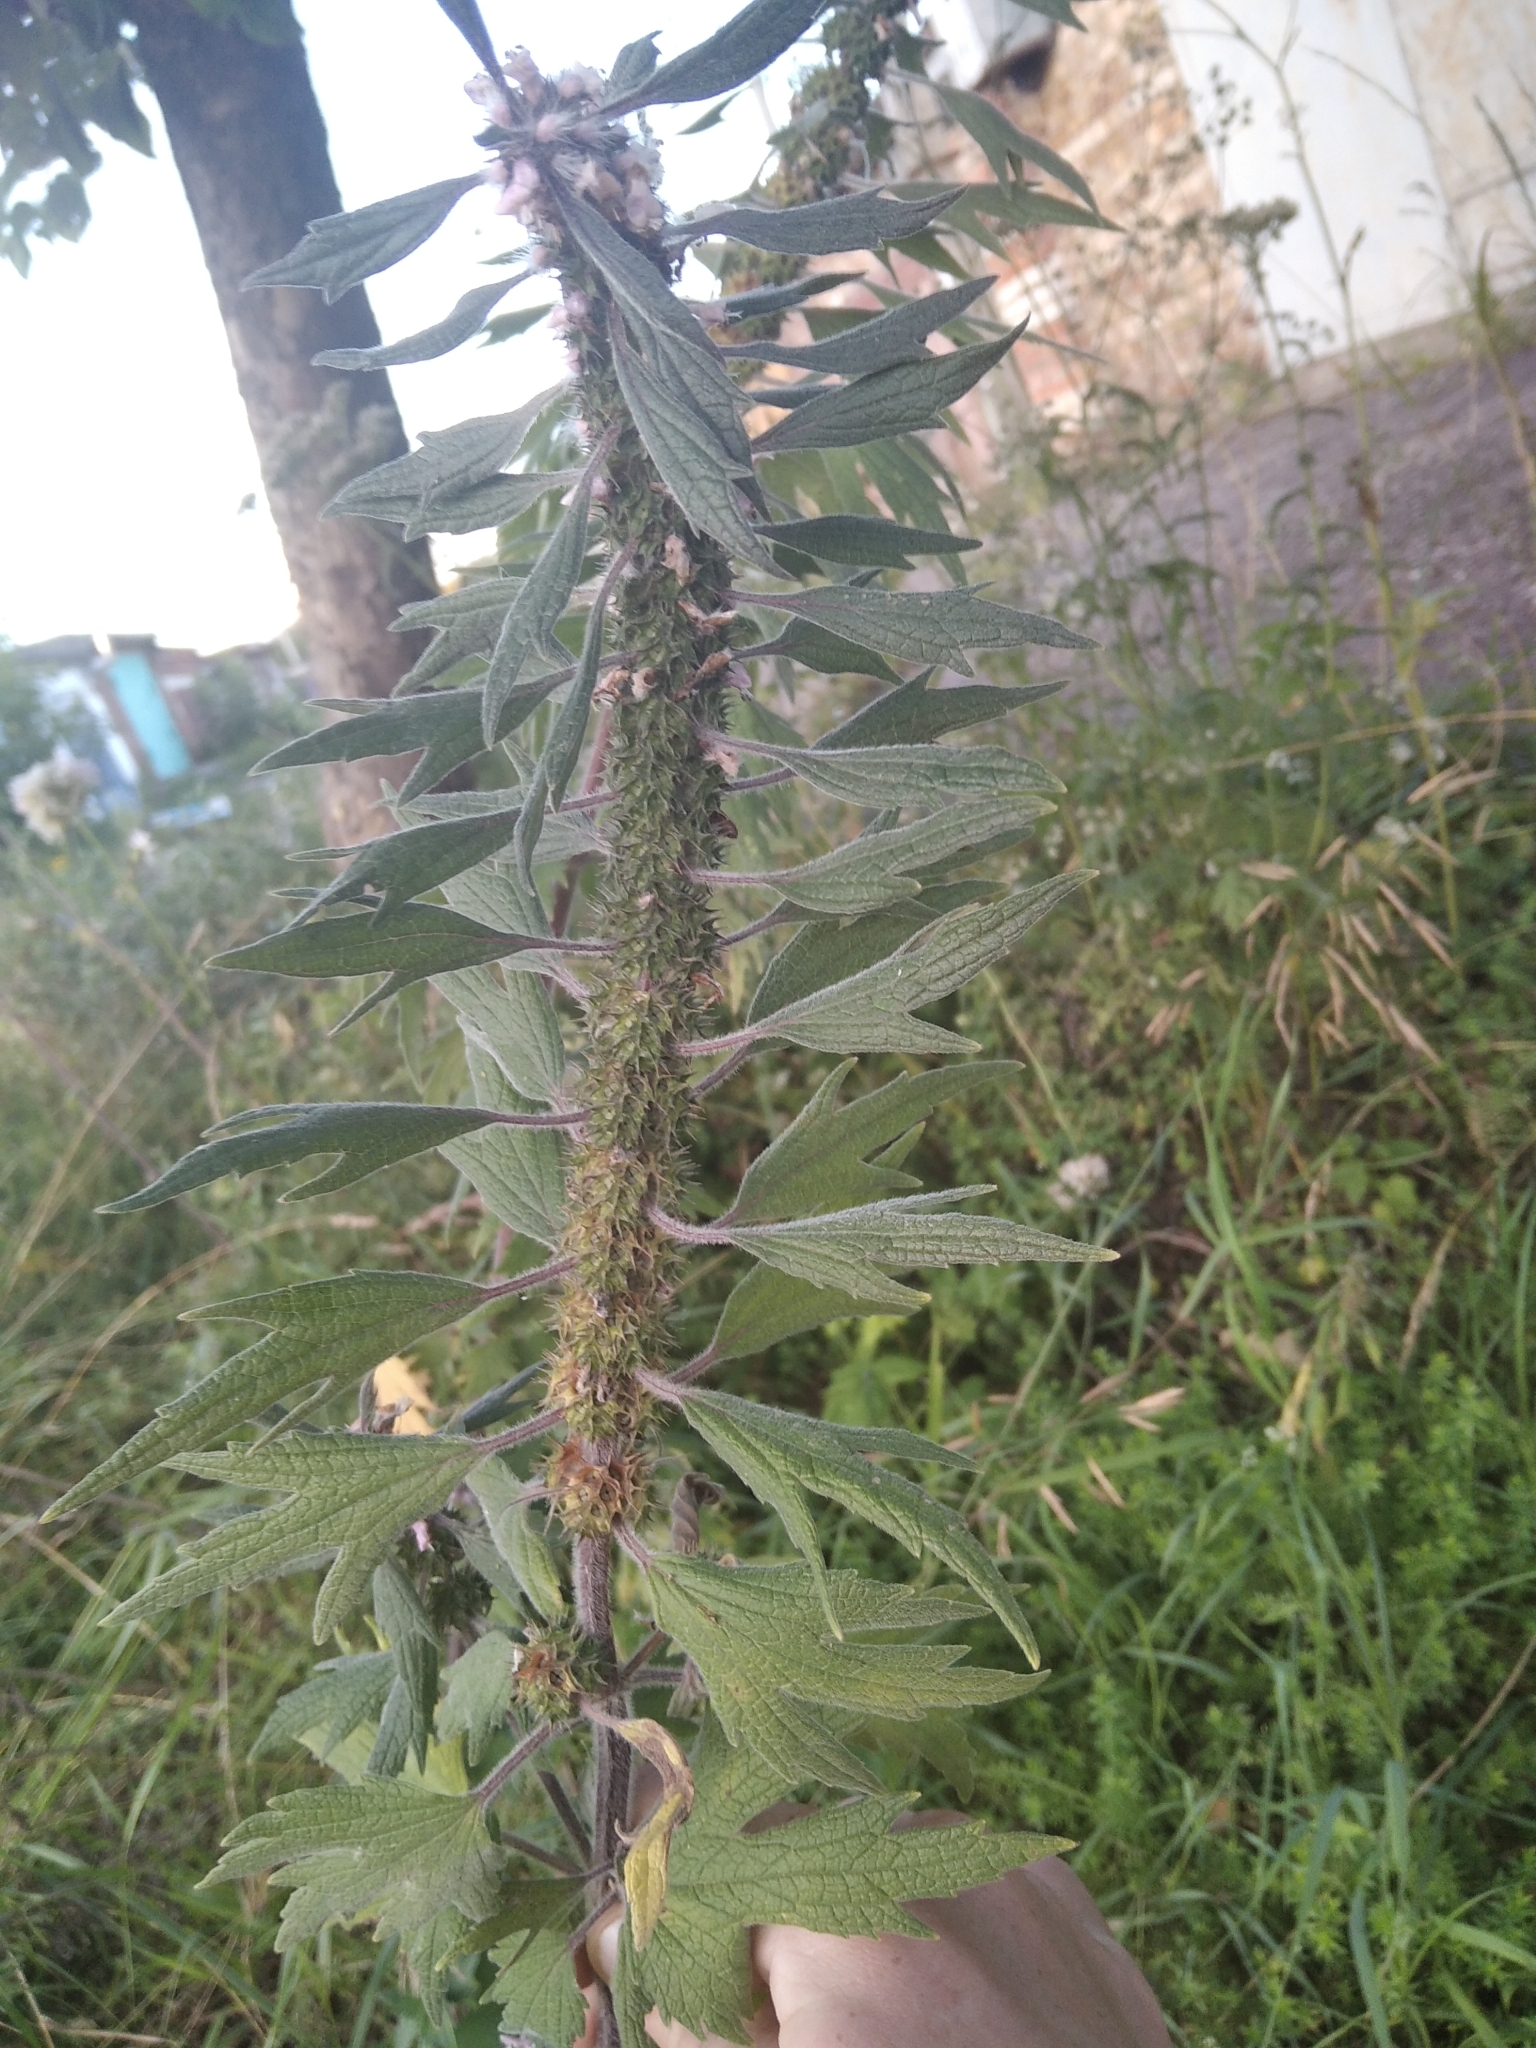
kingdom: Plantae
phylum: Tracheophyta
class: Magnoliopsida
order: Lamiales
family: Lamiaceae
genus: Leonurus
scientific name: Leonurus quinquelobatus
